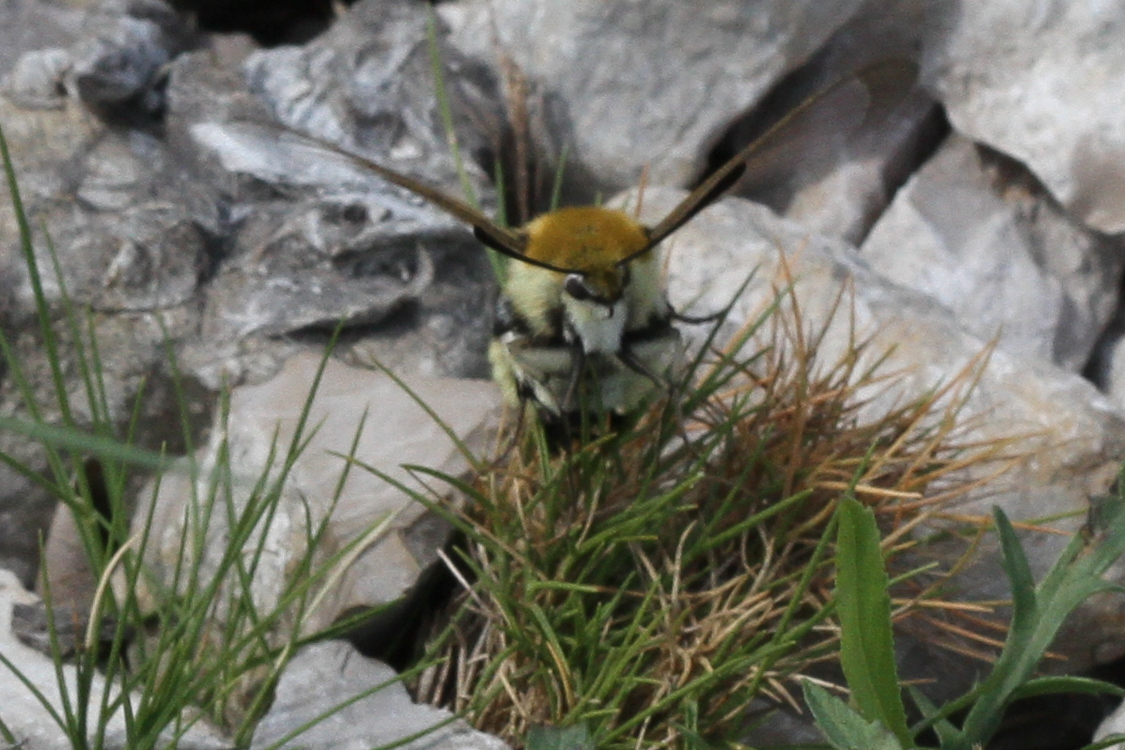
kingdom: Animalia
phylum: Arthropoda
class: Insecta
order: Lepidoptera
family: Sphingidae
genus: Hemaris
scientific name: Hemaris tityus
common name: Narrow-bordered bee hawk-moth
